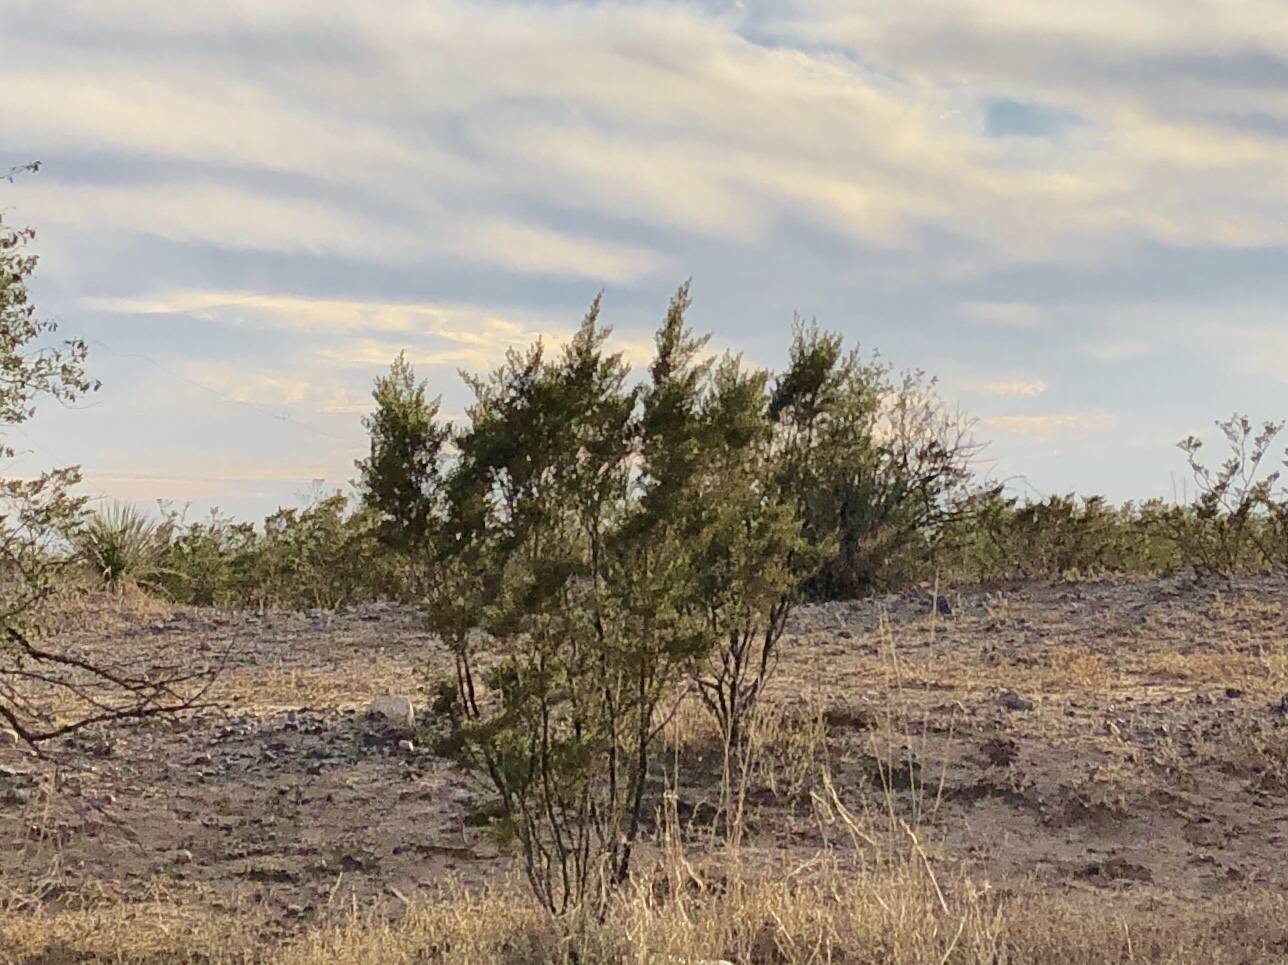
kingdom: Plantae
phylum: Tracheophyta
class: Magnoliopsida
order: Zygophyllales
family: Zygophyllaceae
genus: Larrea
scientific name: Larrea tridentata
